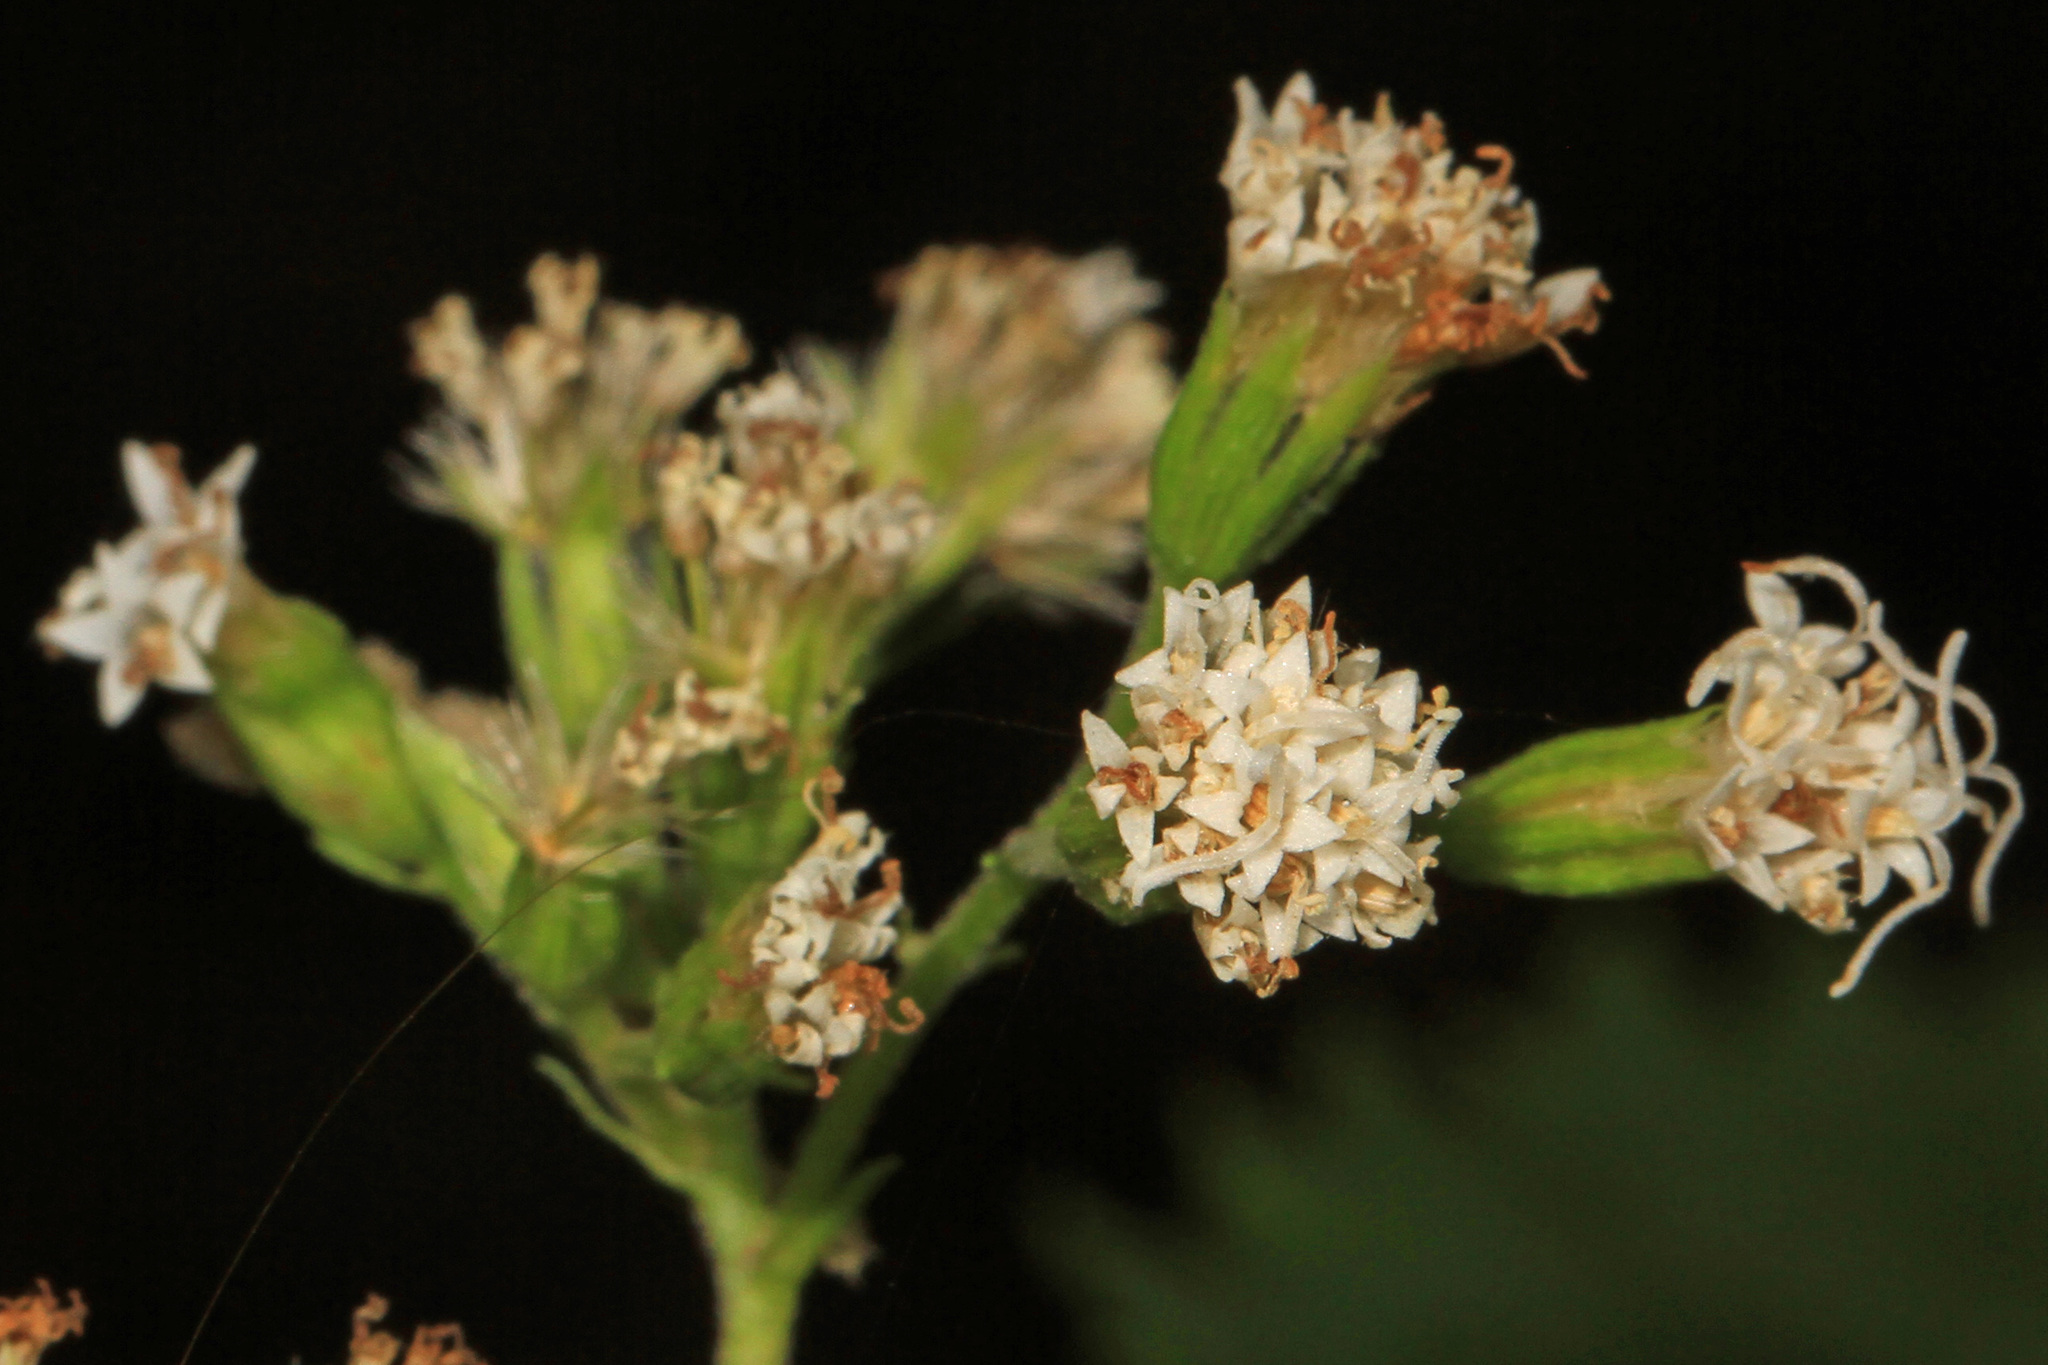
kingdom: Plantae
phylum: Tracheophyta
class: Magnoliopsida
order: Asterales
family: Asteraceae
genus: Ageratina
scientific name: Ageratina altissima
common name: White snakeroot
